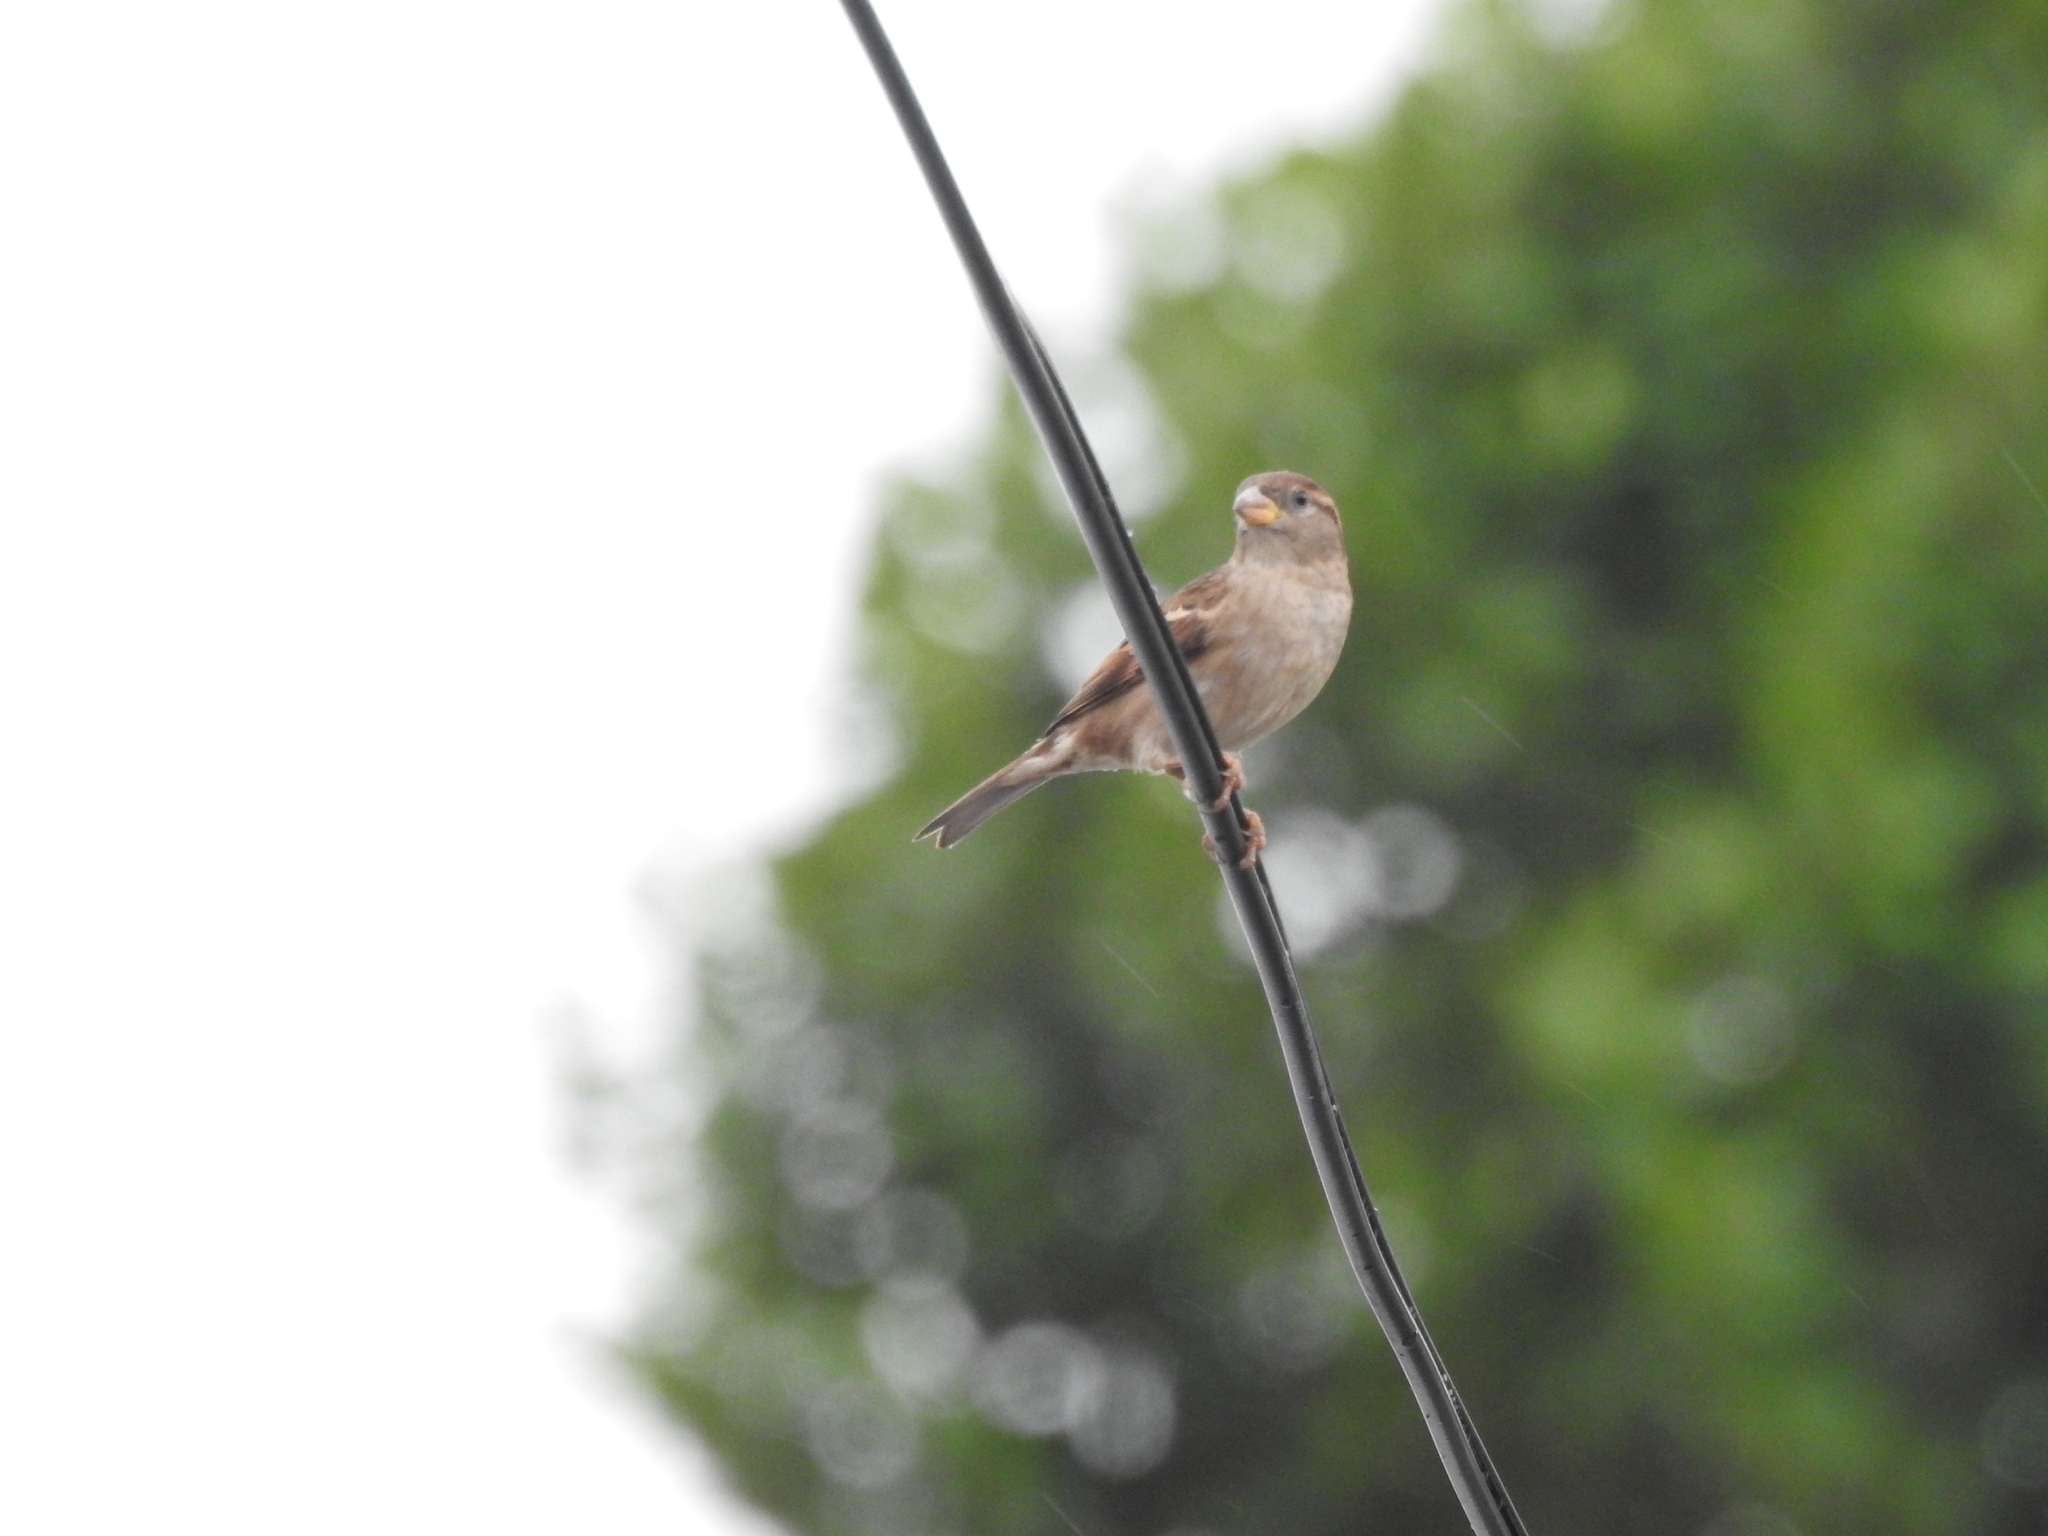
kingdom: Animalia
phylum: Chordata
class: Aves
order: Passeriformes
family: Passeridae
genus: Passer
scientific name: Passer domesticus
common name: House sparrow
